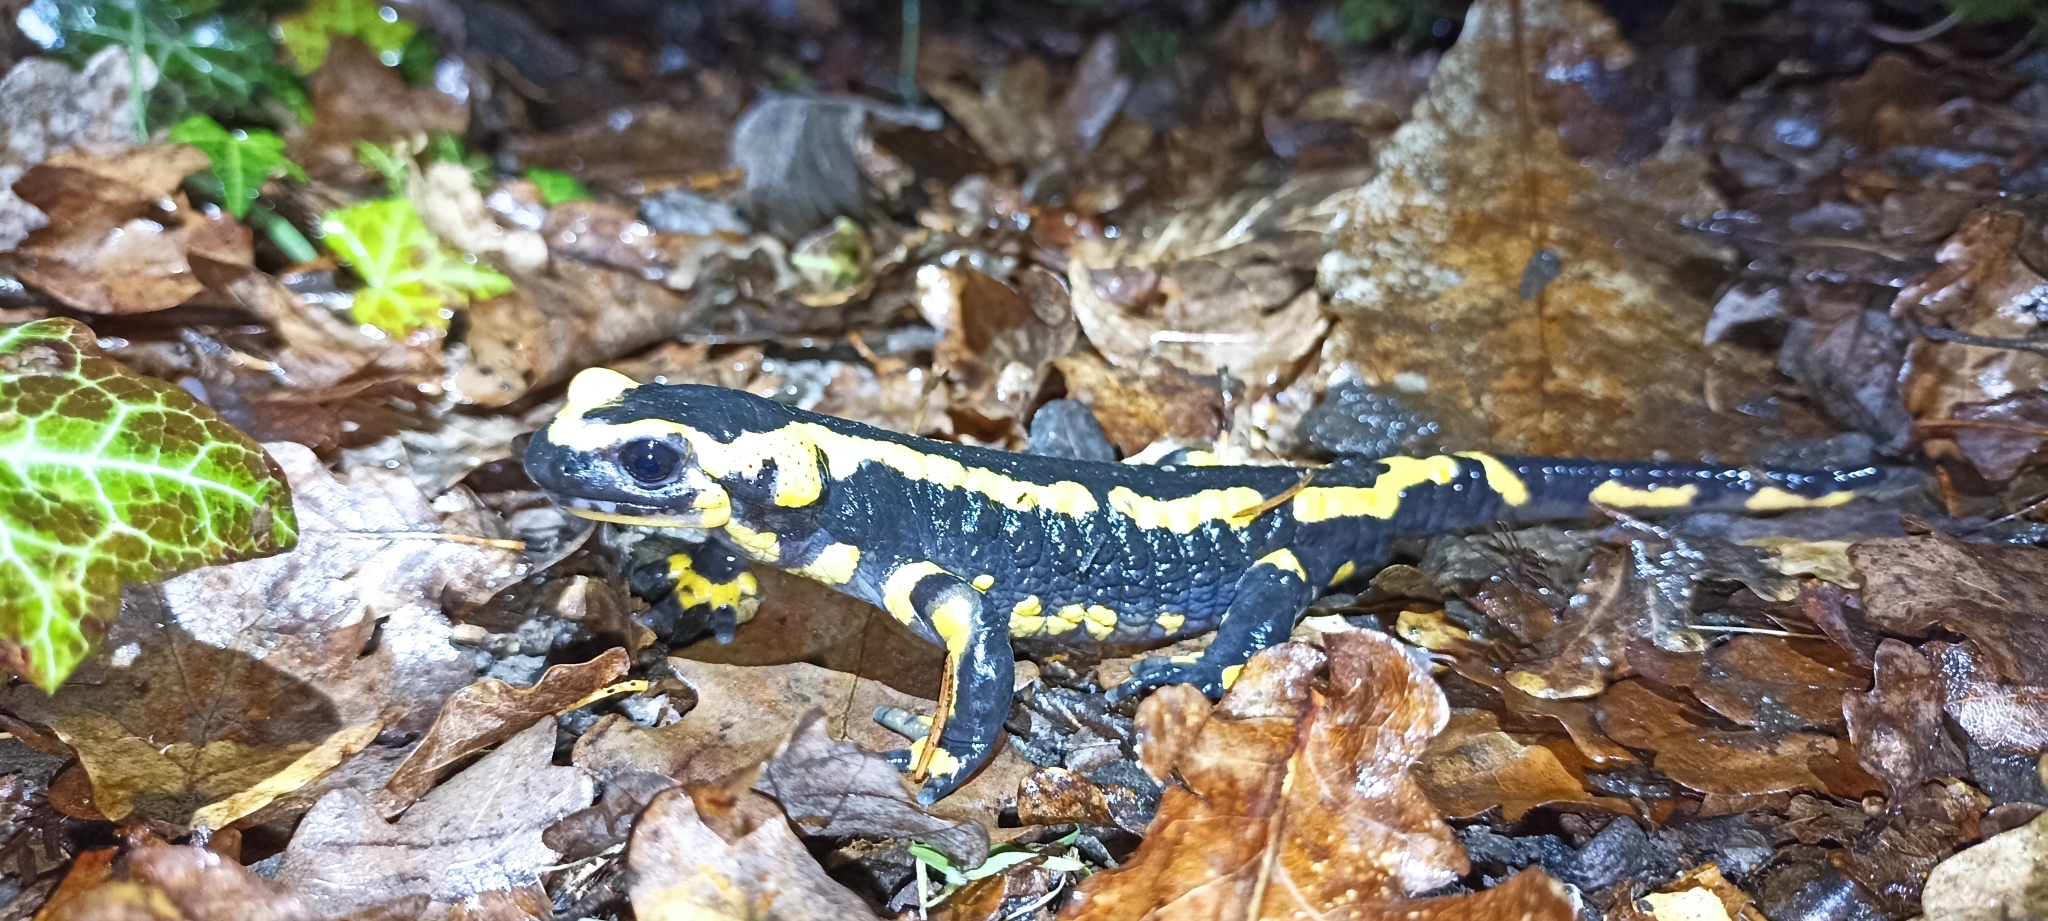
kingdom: Animalia
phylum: Chordata
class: Amphibia
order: Caudata
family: Salamandridae
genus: Salamandra
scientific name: Salamandra salamandra
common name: Fire salamander
